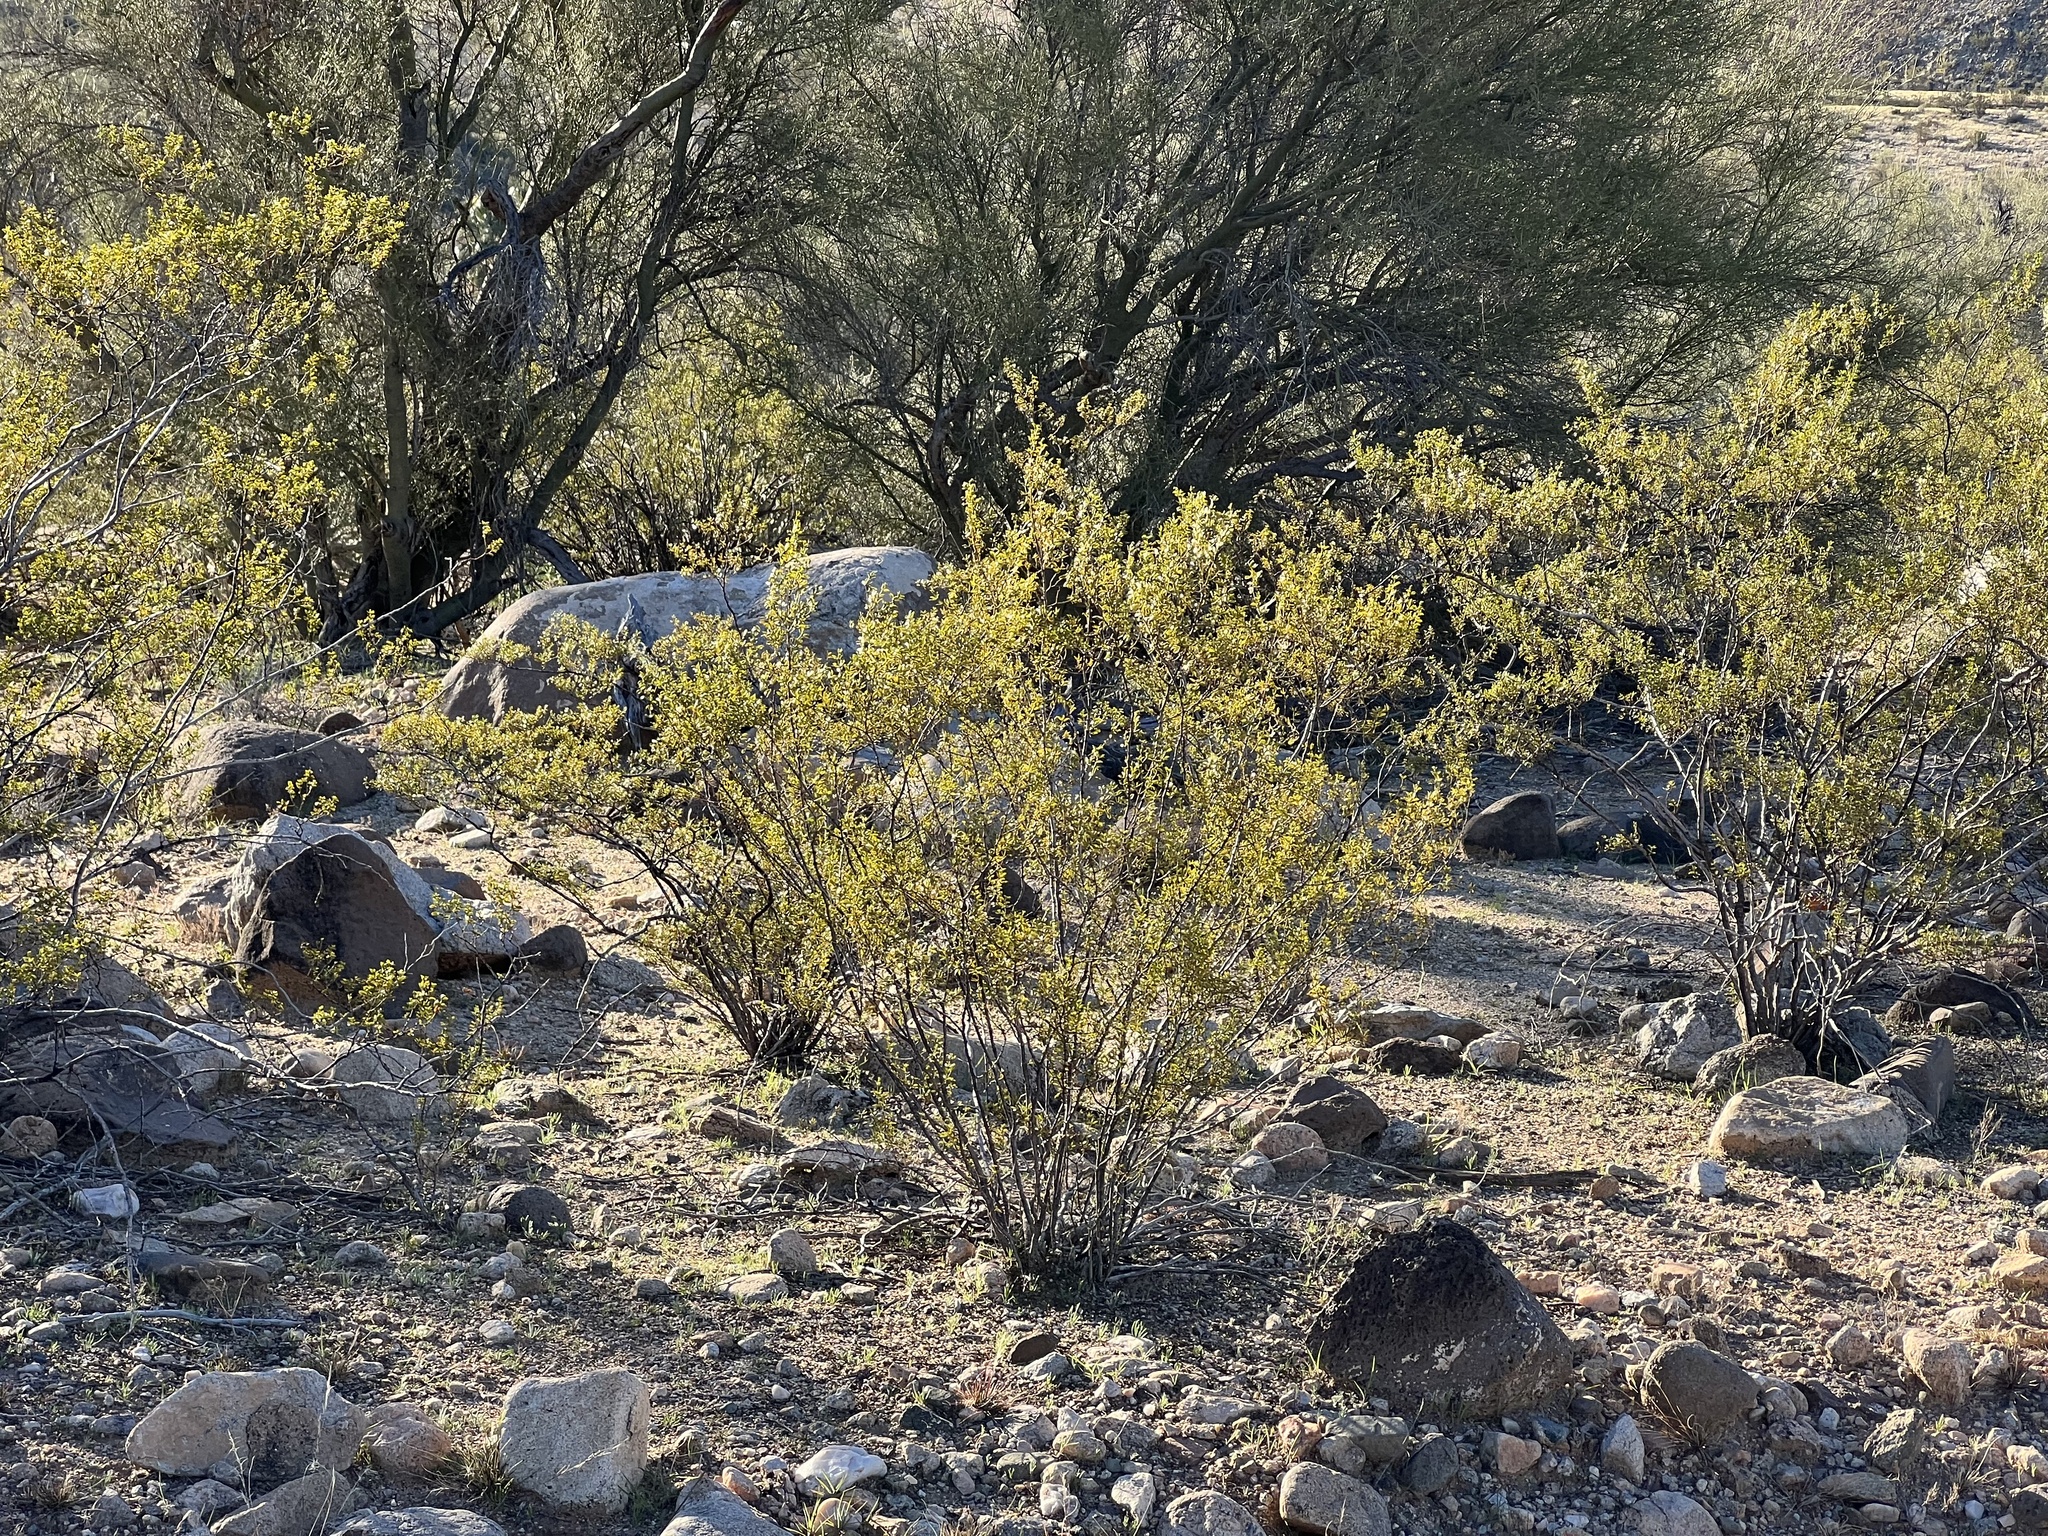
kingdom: Plantae
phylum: Tracheophyta
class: Magnoliopsida
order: Zygophyllales
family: Zygophyllaceae
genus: Larrea
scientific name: Larrea tridentata
